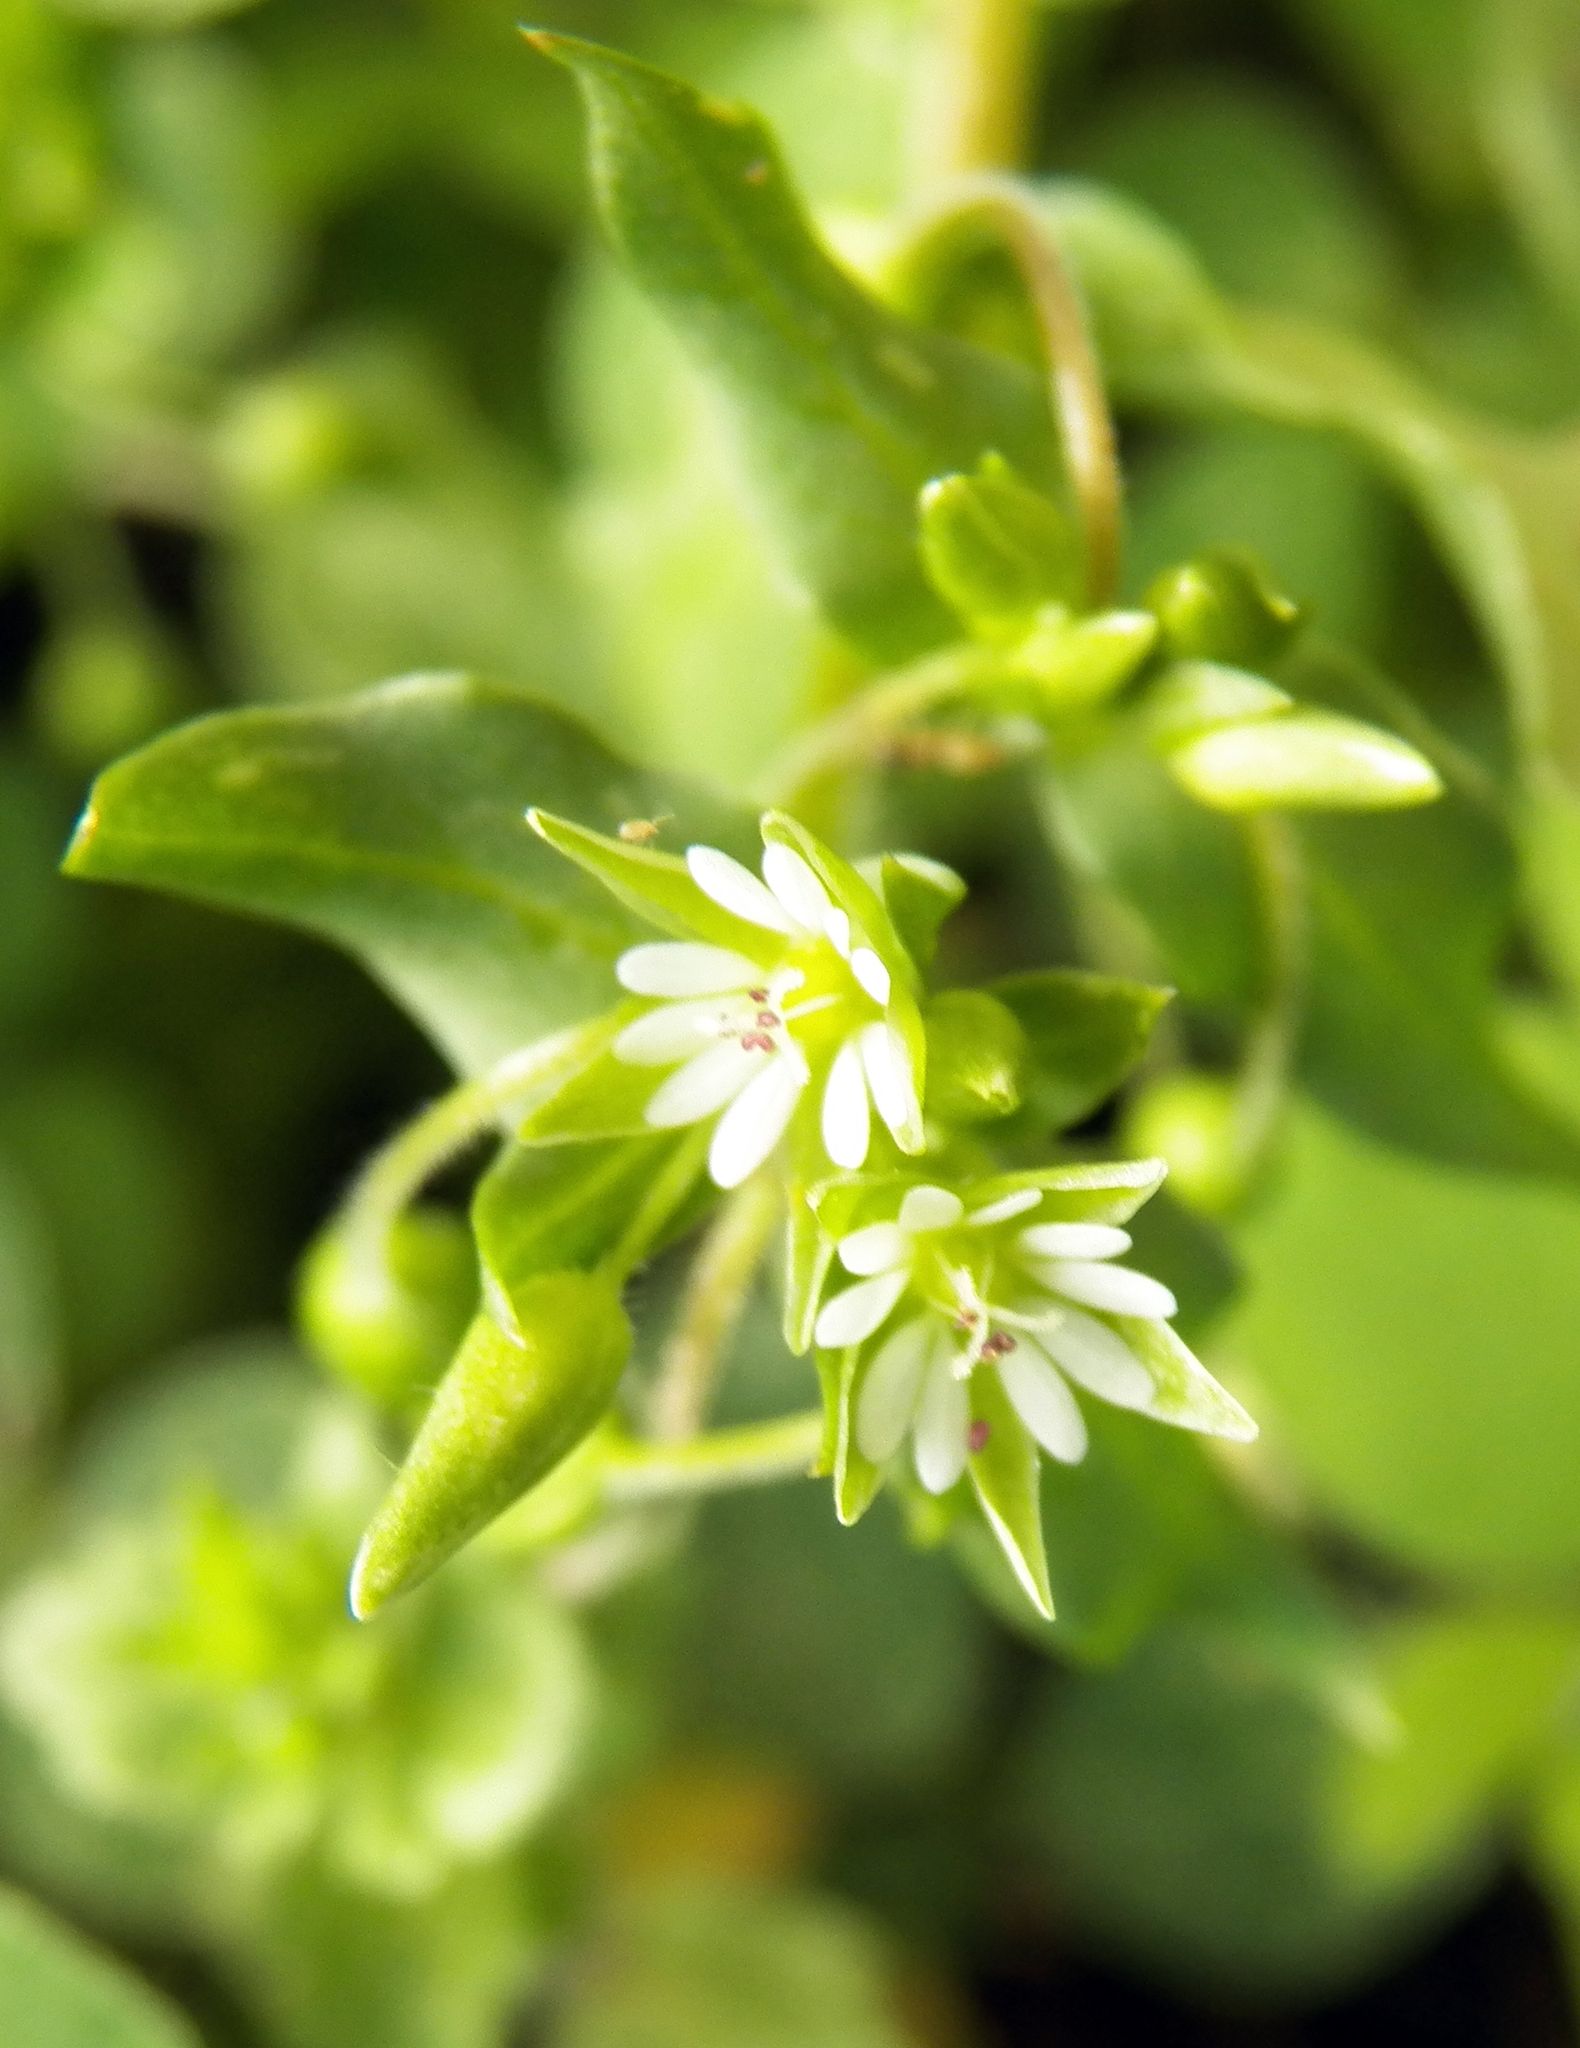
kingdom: Plantae
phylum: Tracheophyta
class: Magnoliopsida
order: Caryophyllales
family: Caryophyllaceae
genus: Stellaria
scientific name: Stellaria media
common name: Common chickweed
